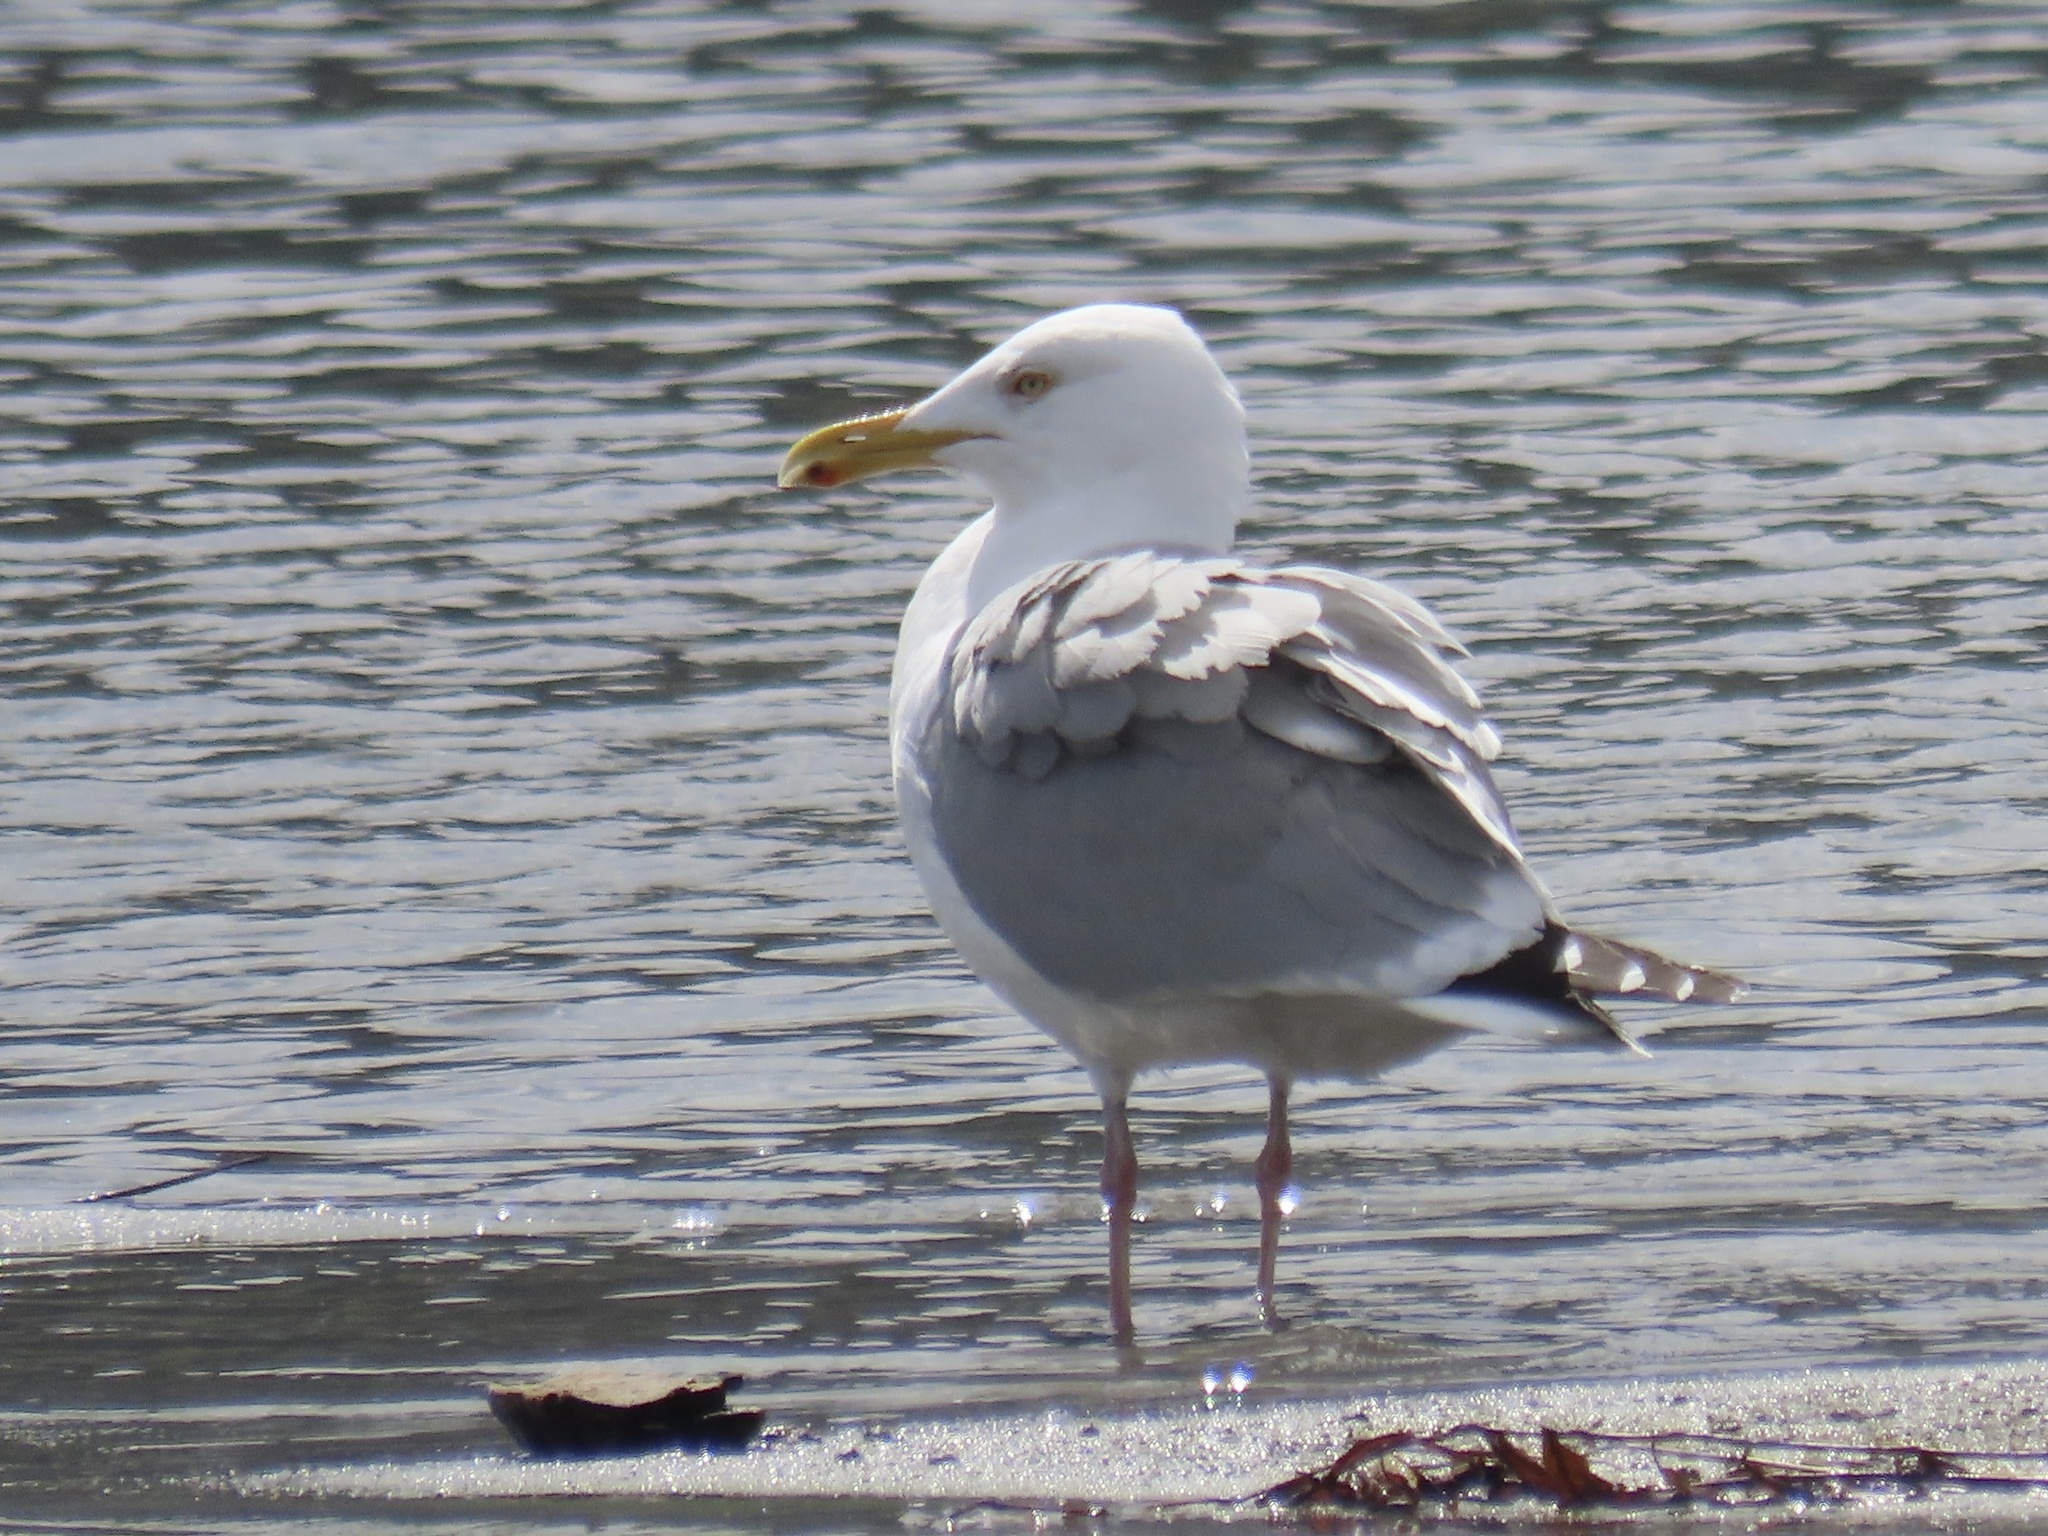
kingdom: Animalia
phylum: Chordata
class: Aves
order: Charadriiformes
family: Laridae
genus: Larus
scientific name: Larus argentatus
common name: Herring gull
